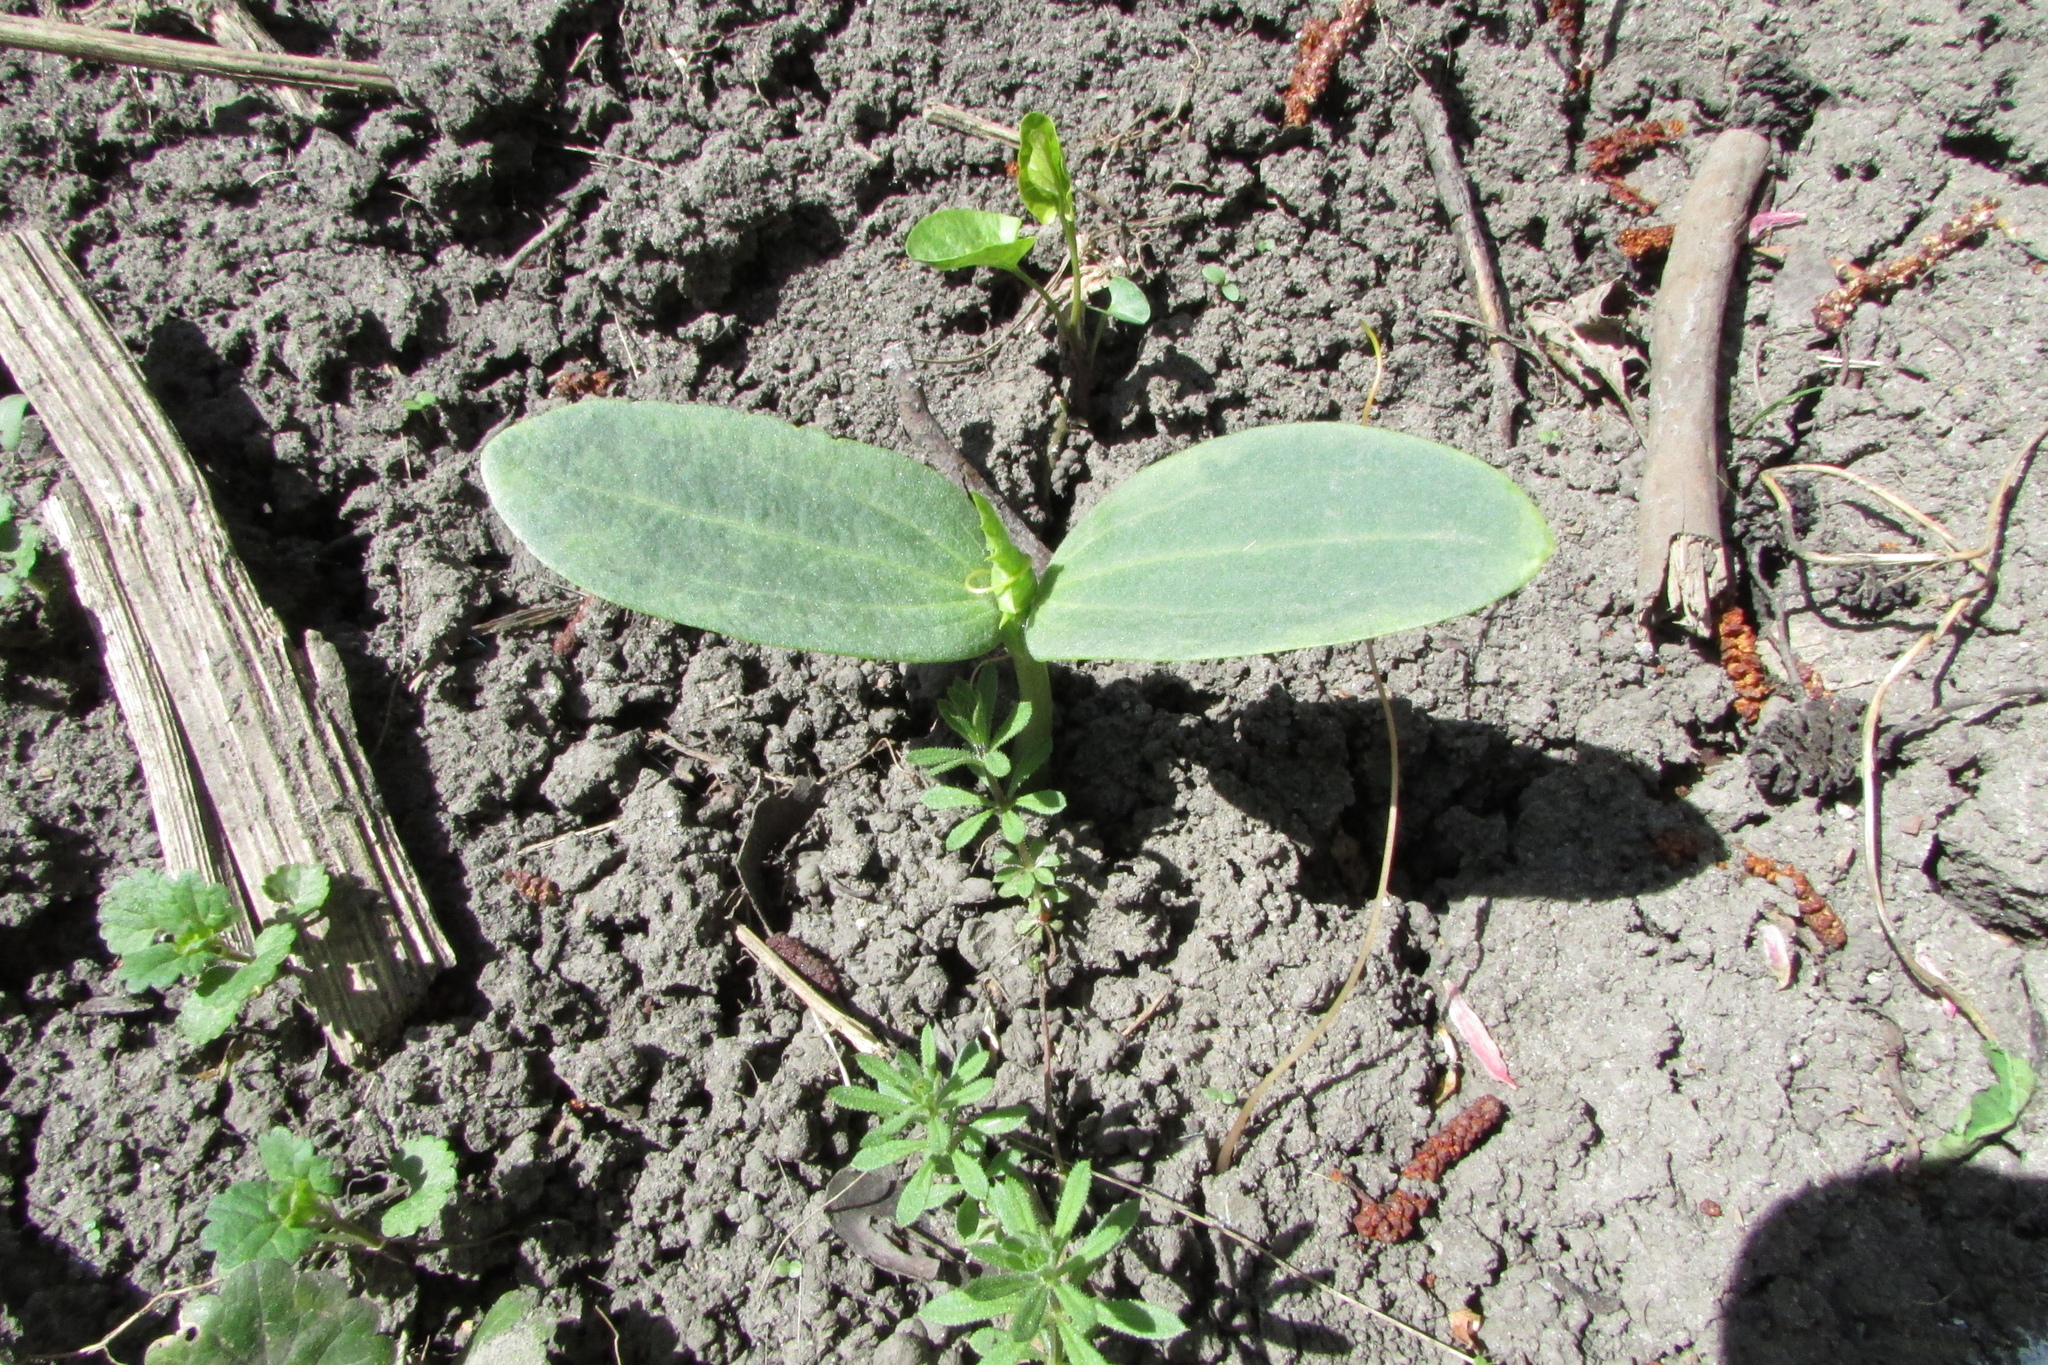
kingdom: Plantae
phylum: Tracheophyta
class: Magnoliopsida
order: Cucurbitales
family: Cucurbitaceae
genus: Echinocystis
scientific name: Echinocystis lobata
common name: Wild cucumber
